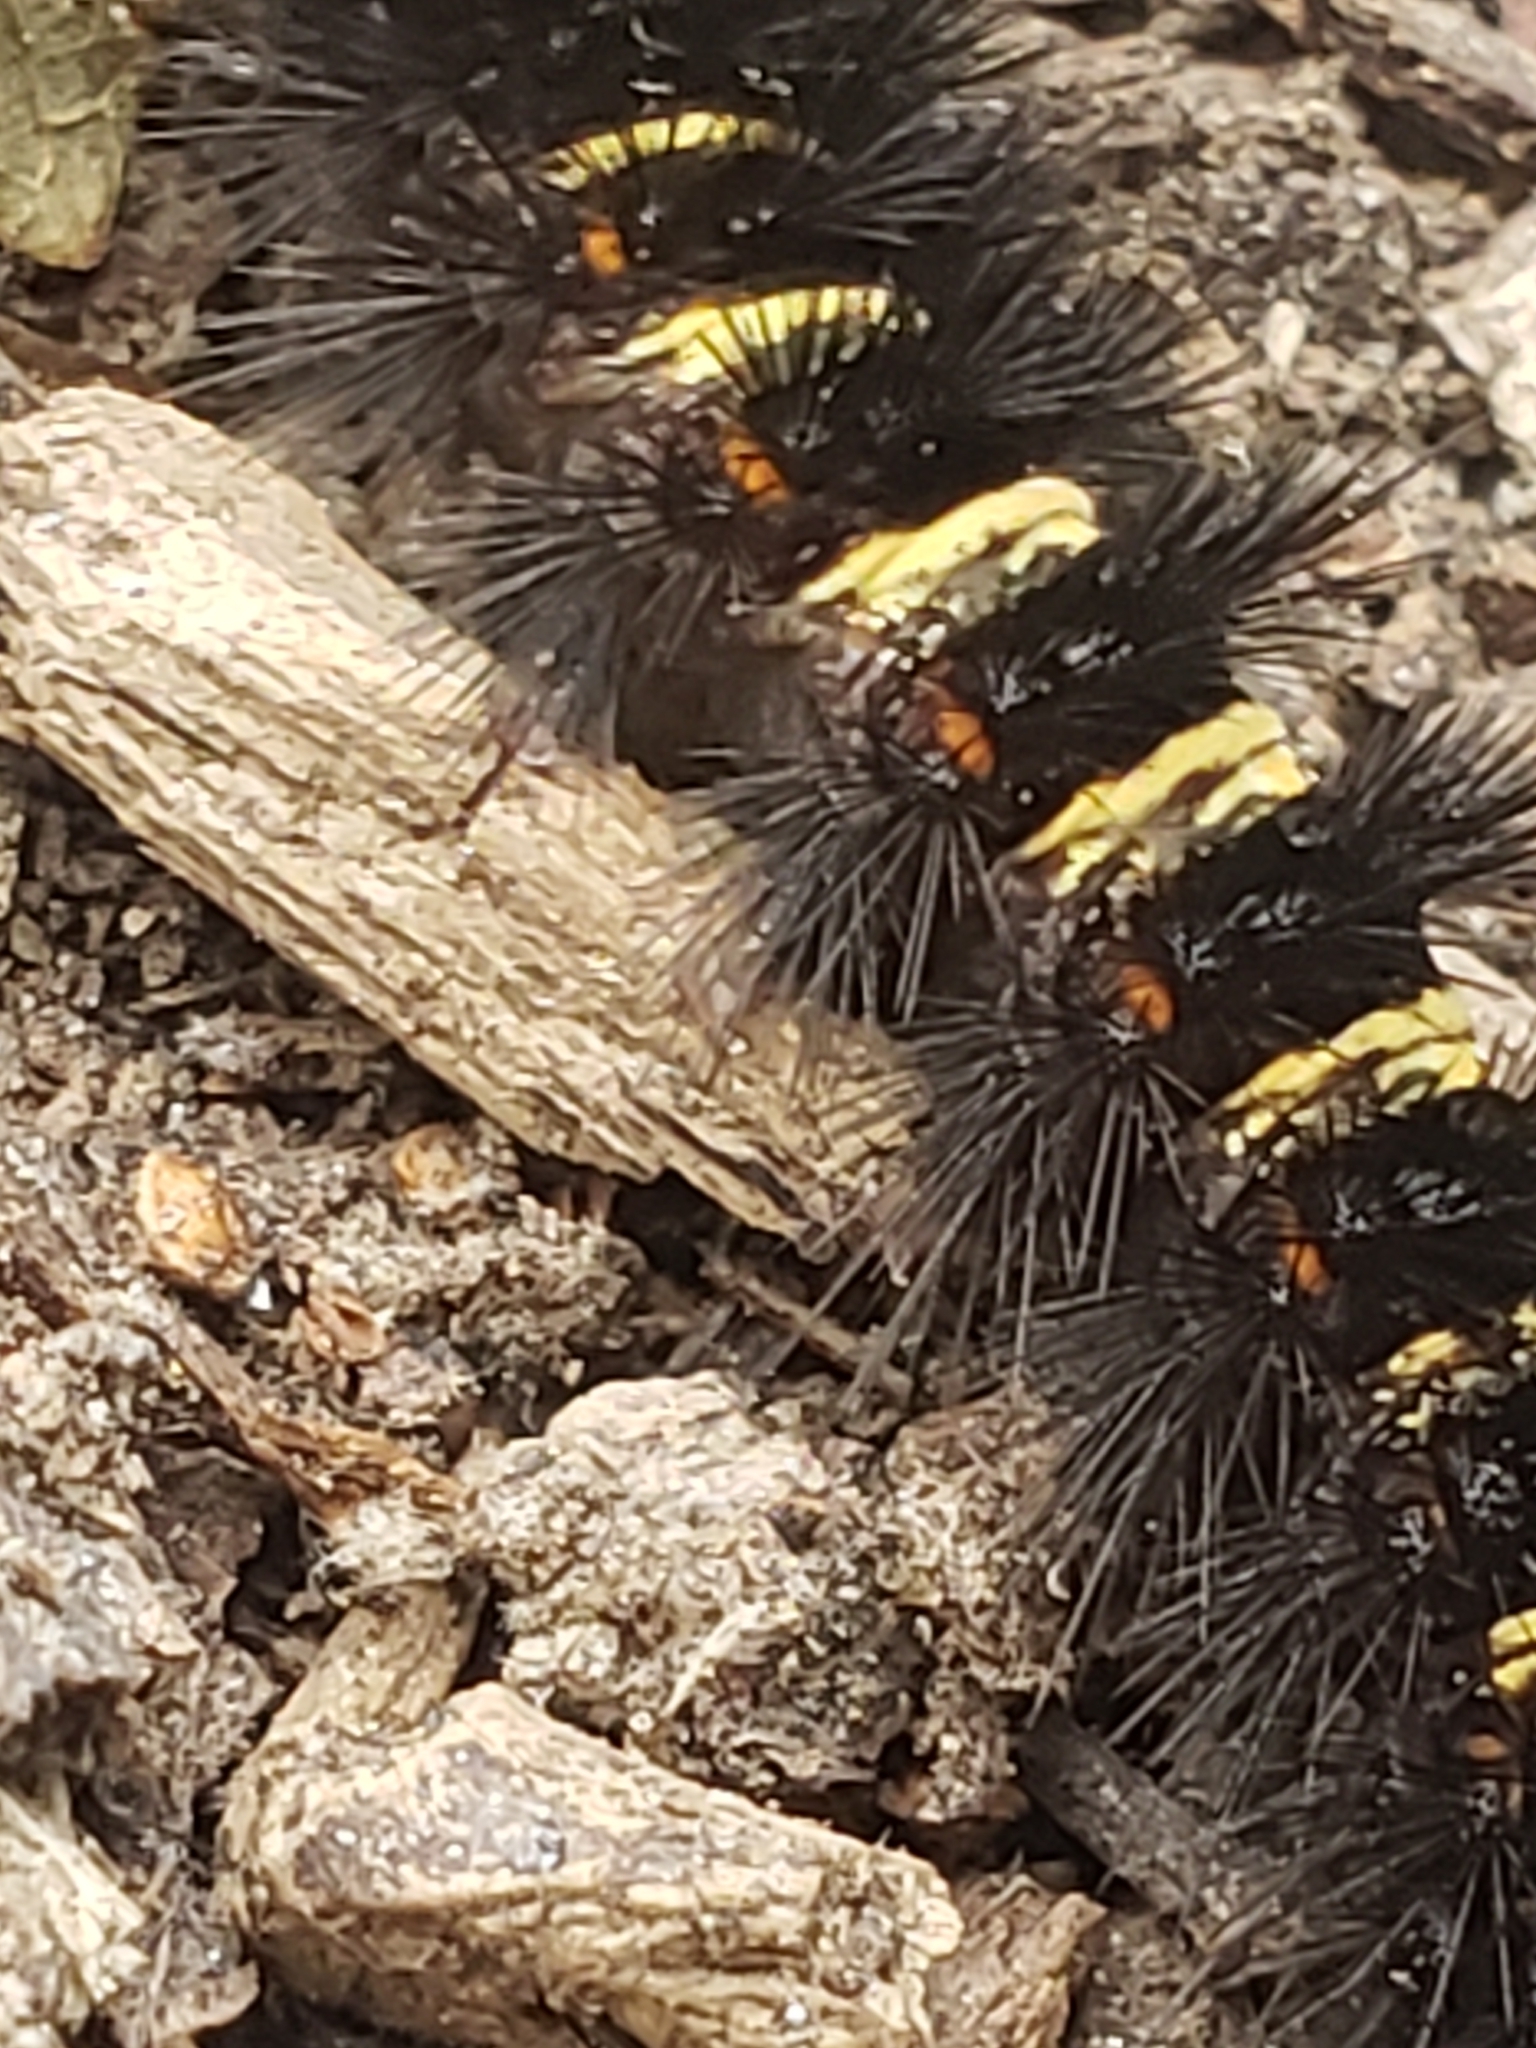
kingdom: Animalia
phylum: Arthropoda
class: Insecta
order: Lepidoptera
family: Erebidae
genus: Spilosoma
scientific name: Spilosoma congrua
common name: Agreeable tiger moth
